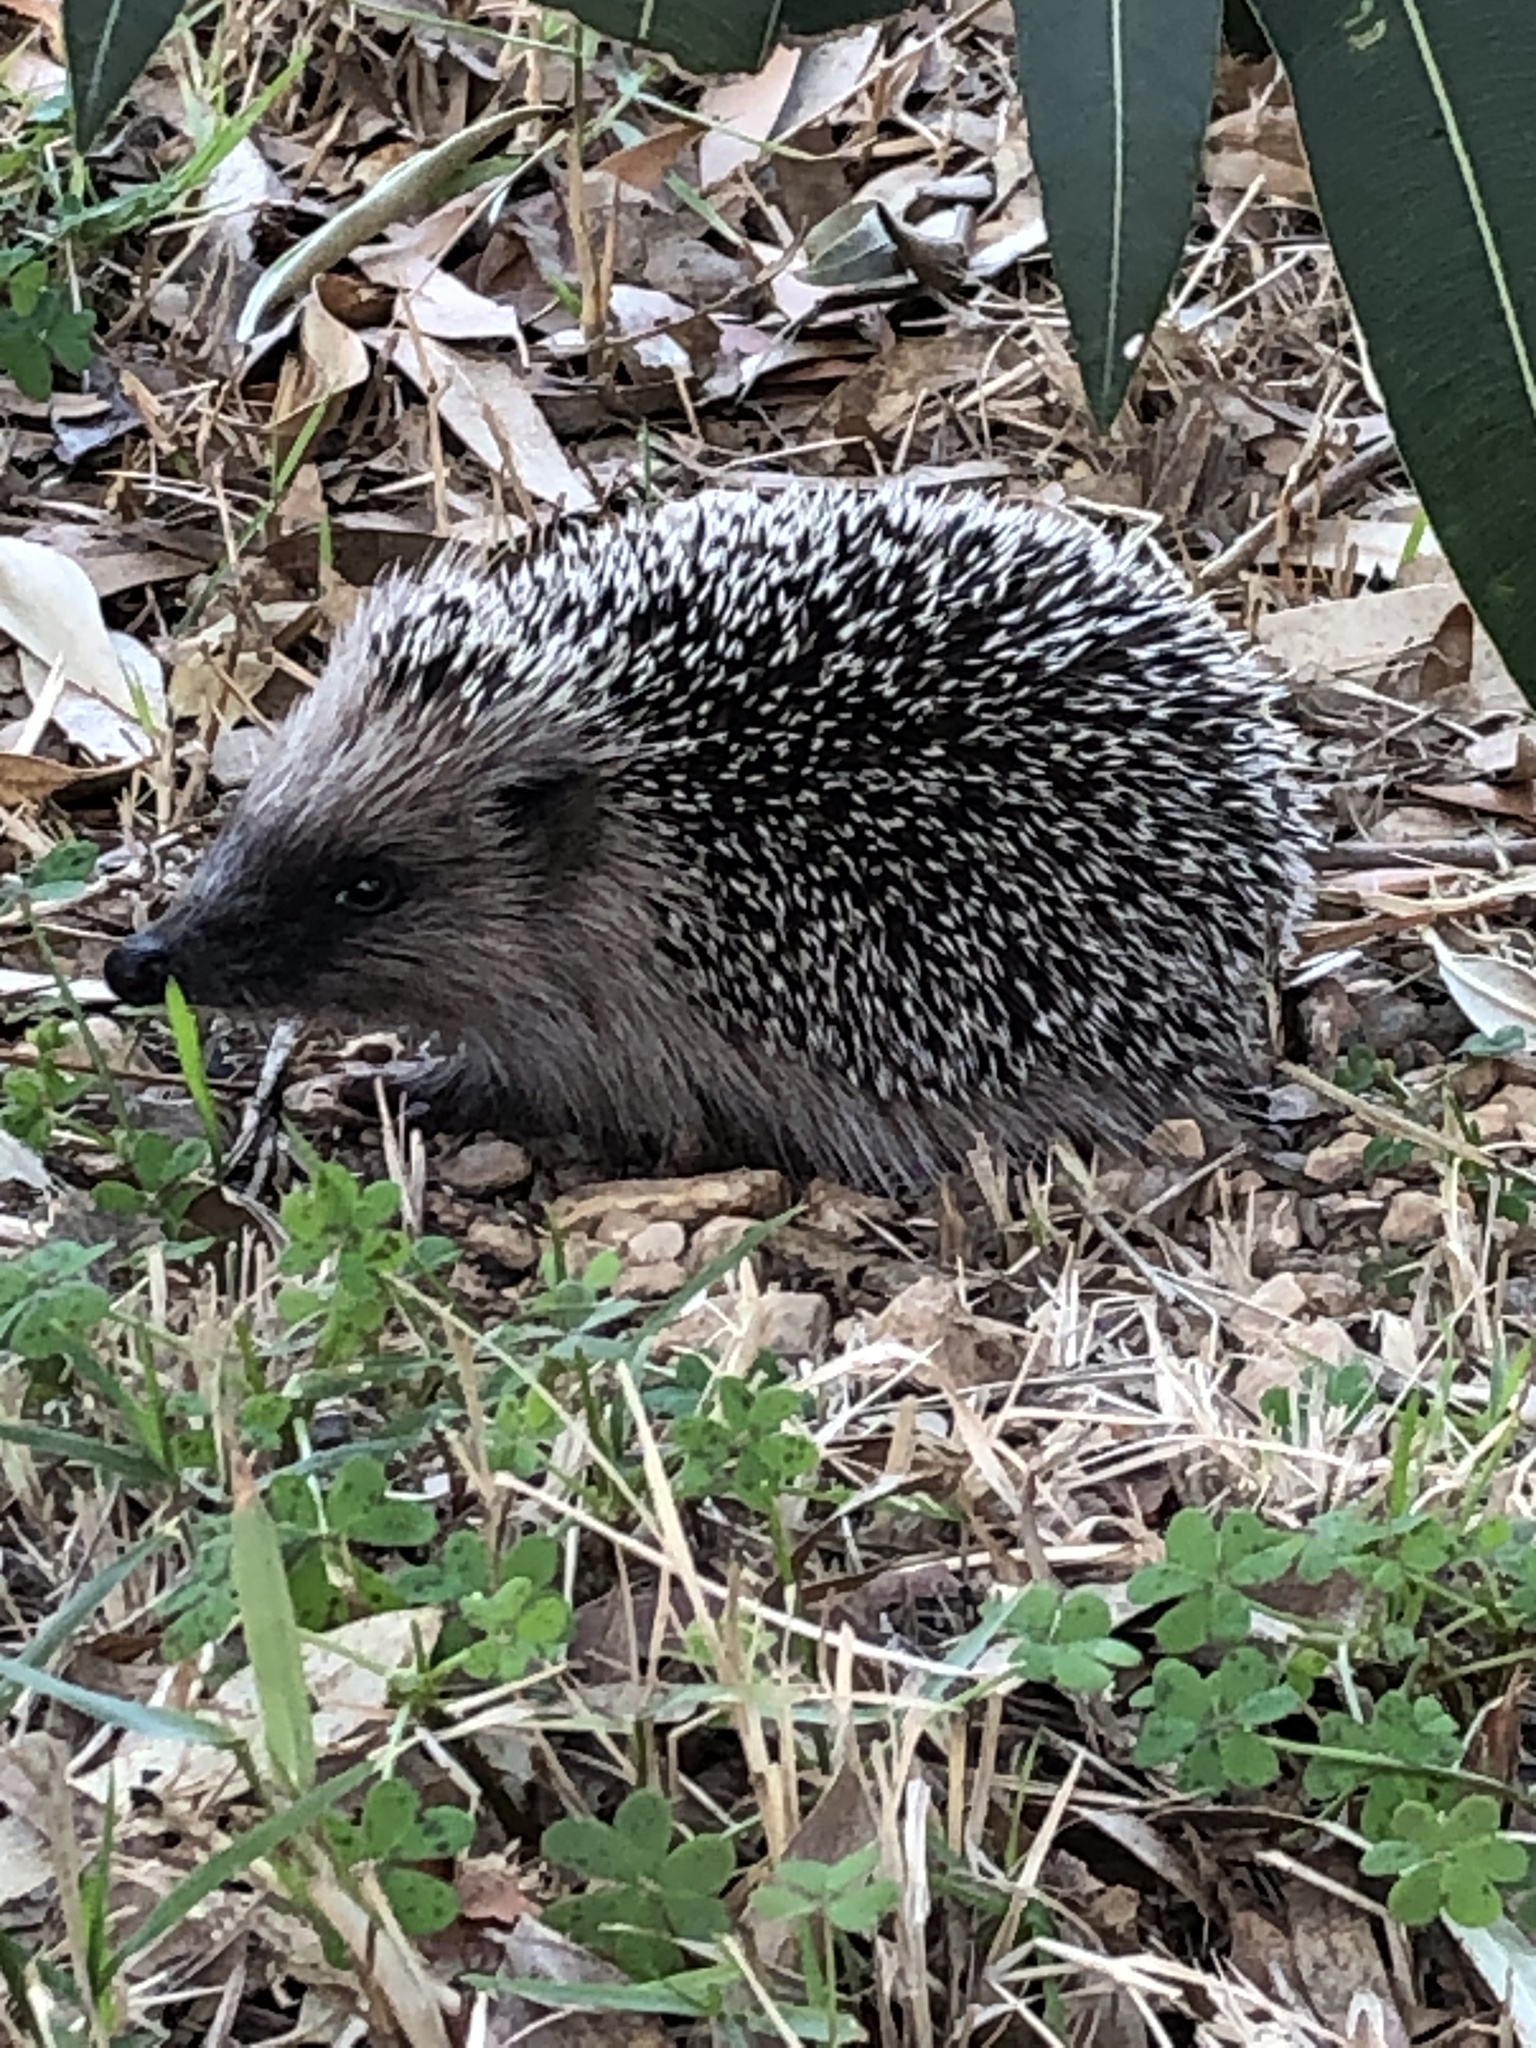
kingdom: Animalia
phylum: Chordata
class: Mammalia
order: Erinaceomorpha
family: Erinaceidae
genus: Erinaceus
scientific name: Erinaceus europaeus
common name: West european hedgehog
